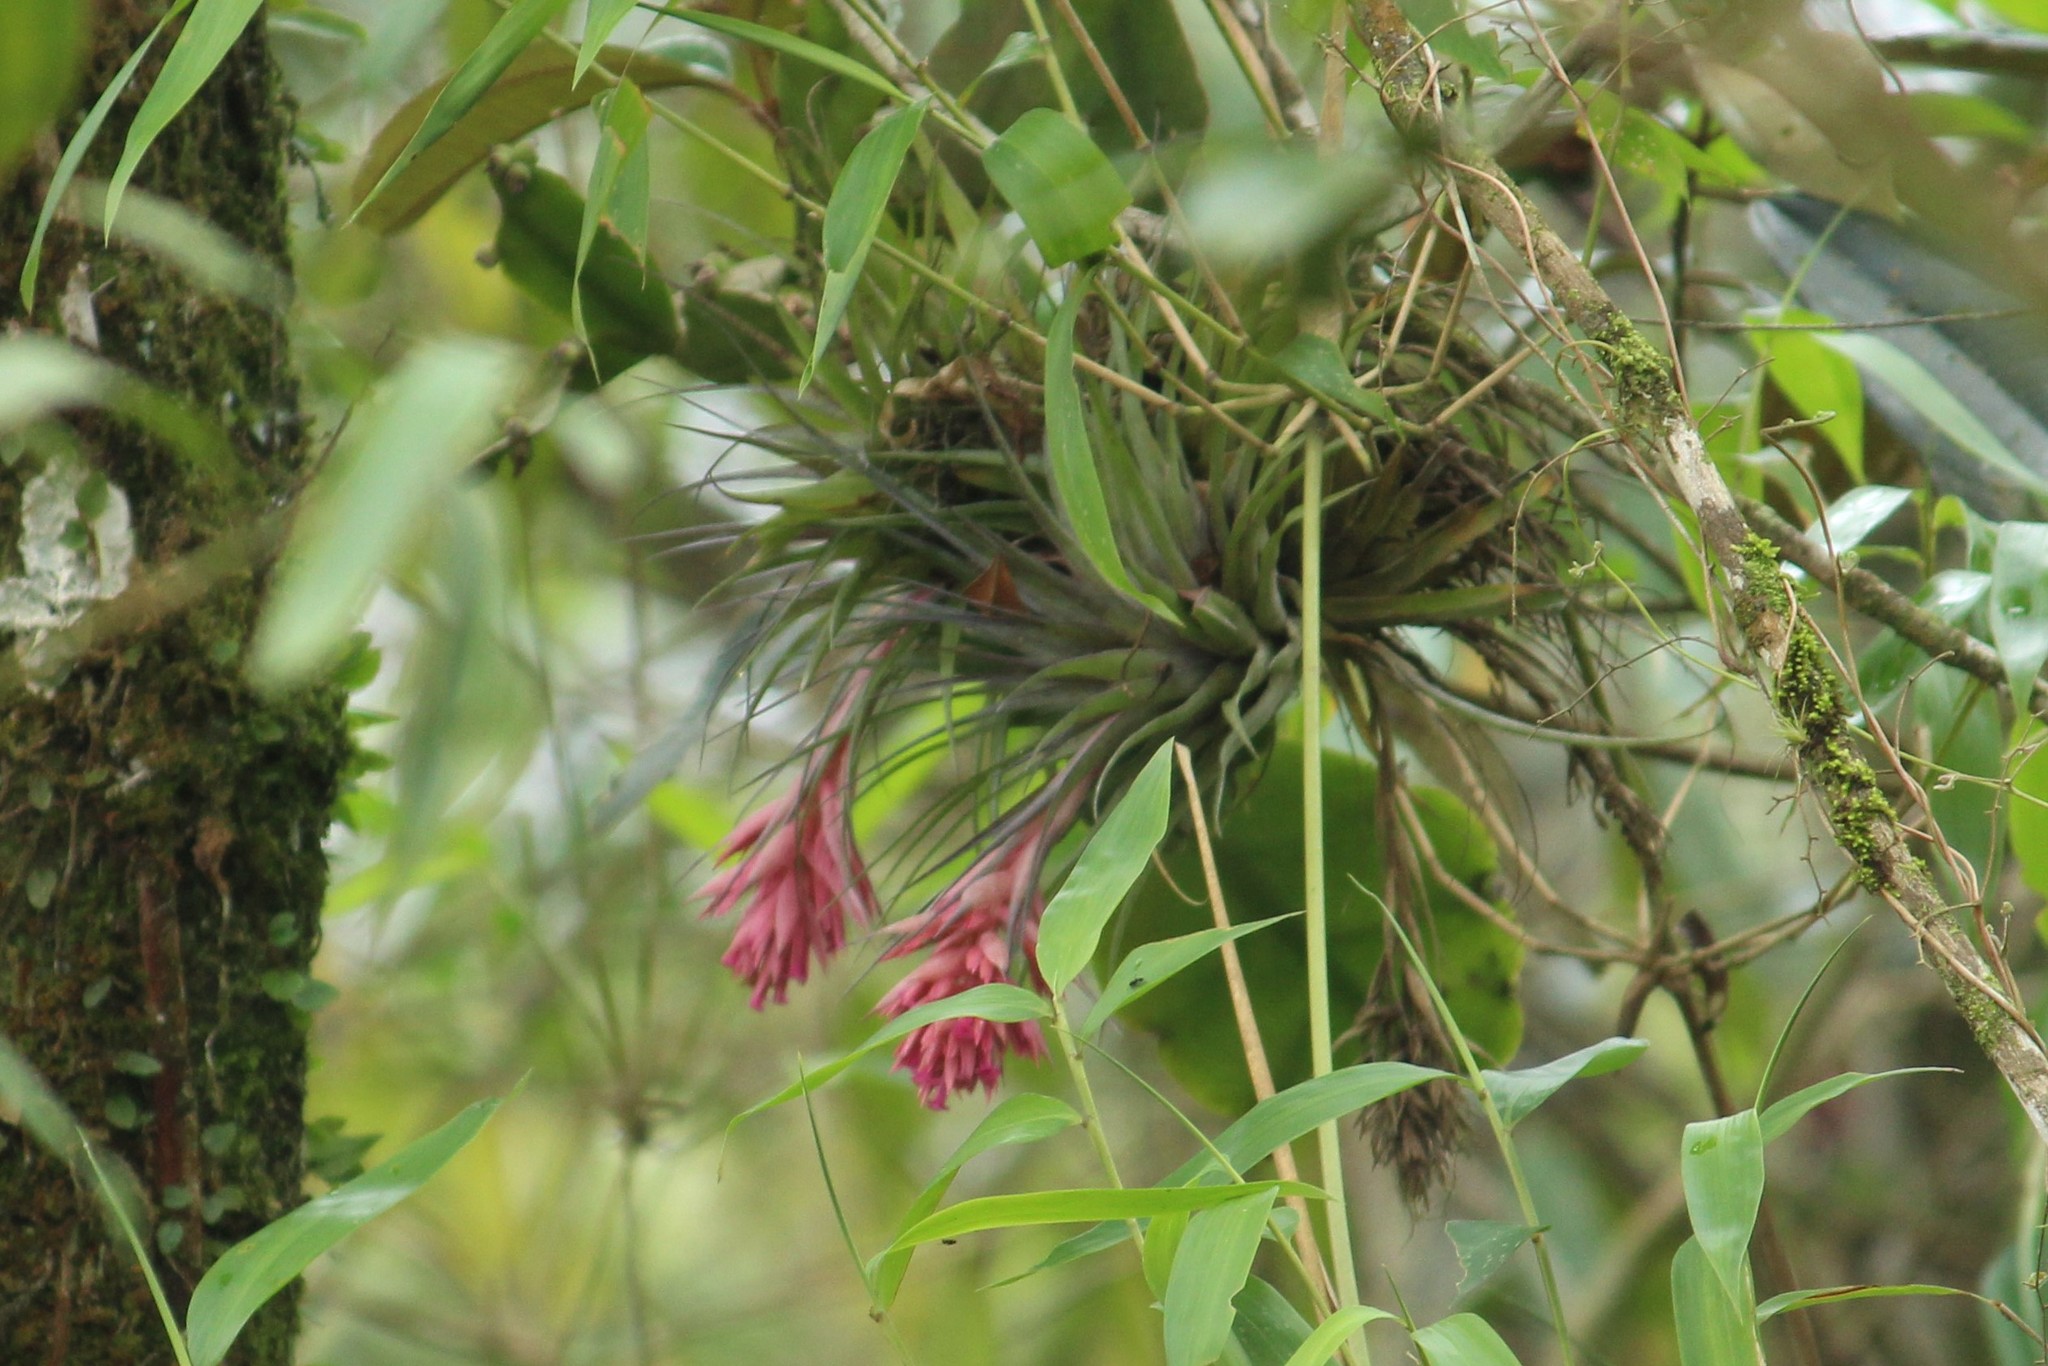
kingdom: Plantae
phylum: Tracheophyta
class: Liliopsida
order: Poales
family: Bromeliaceae
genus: Tillandsia
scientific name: Tillandsia geminiflora
